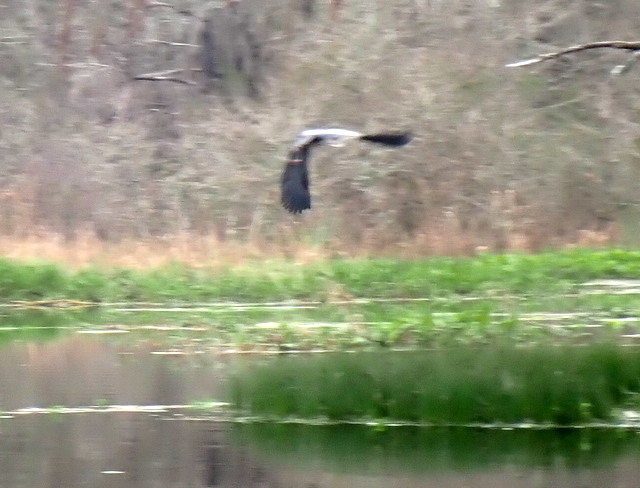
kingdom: Animalia
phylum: Chordata
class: Aves
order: Pelecaniformes
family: Ardeidae
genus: Ardea
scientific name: Ardea herodias
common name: Great blue heron
